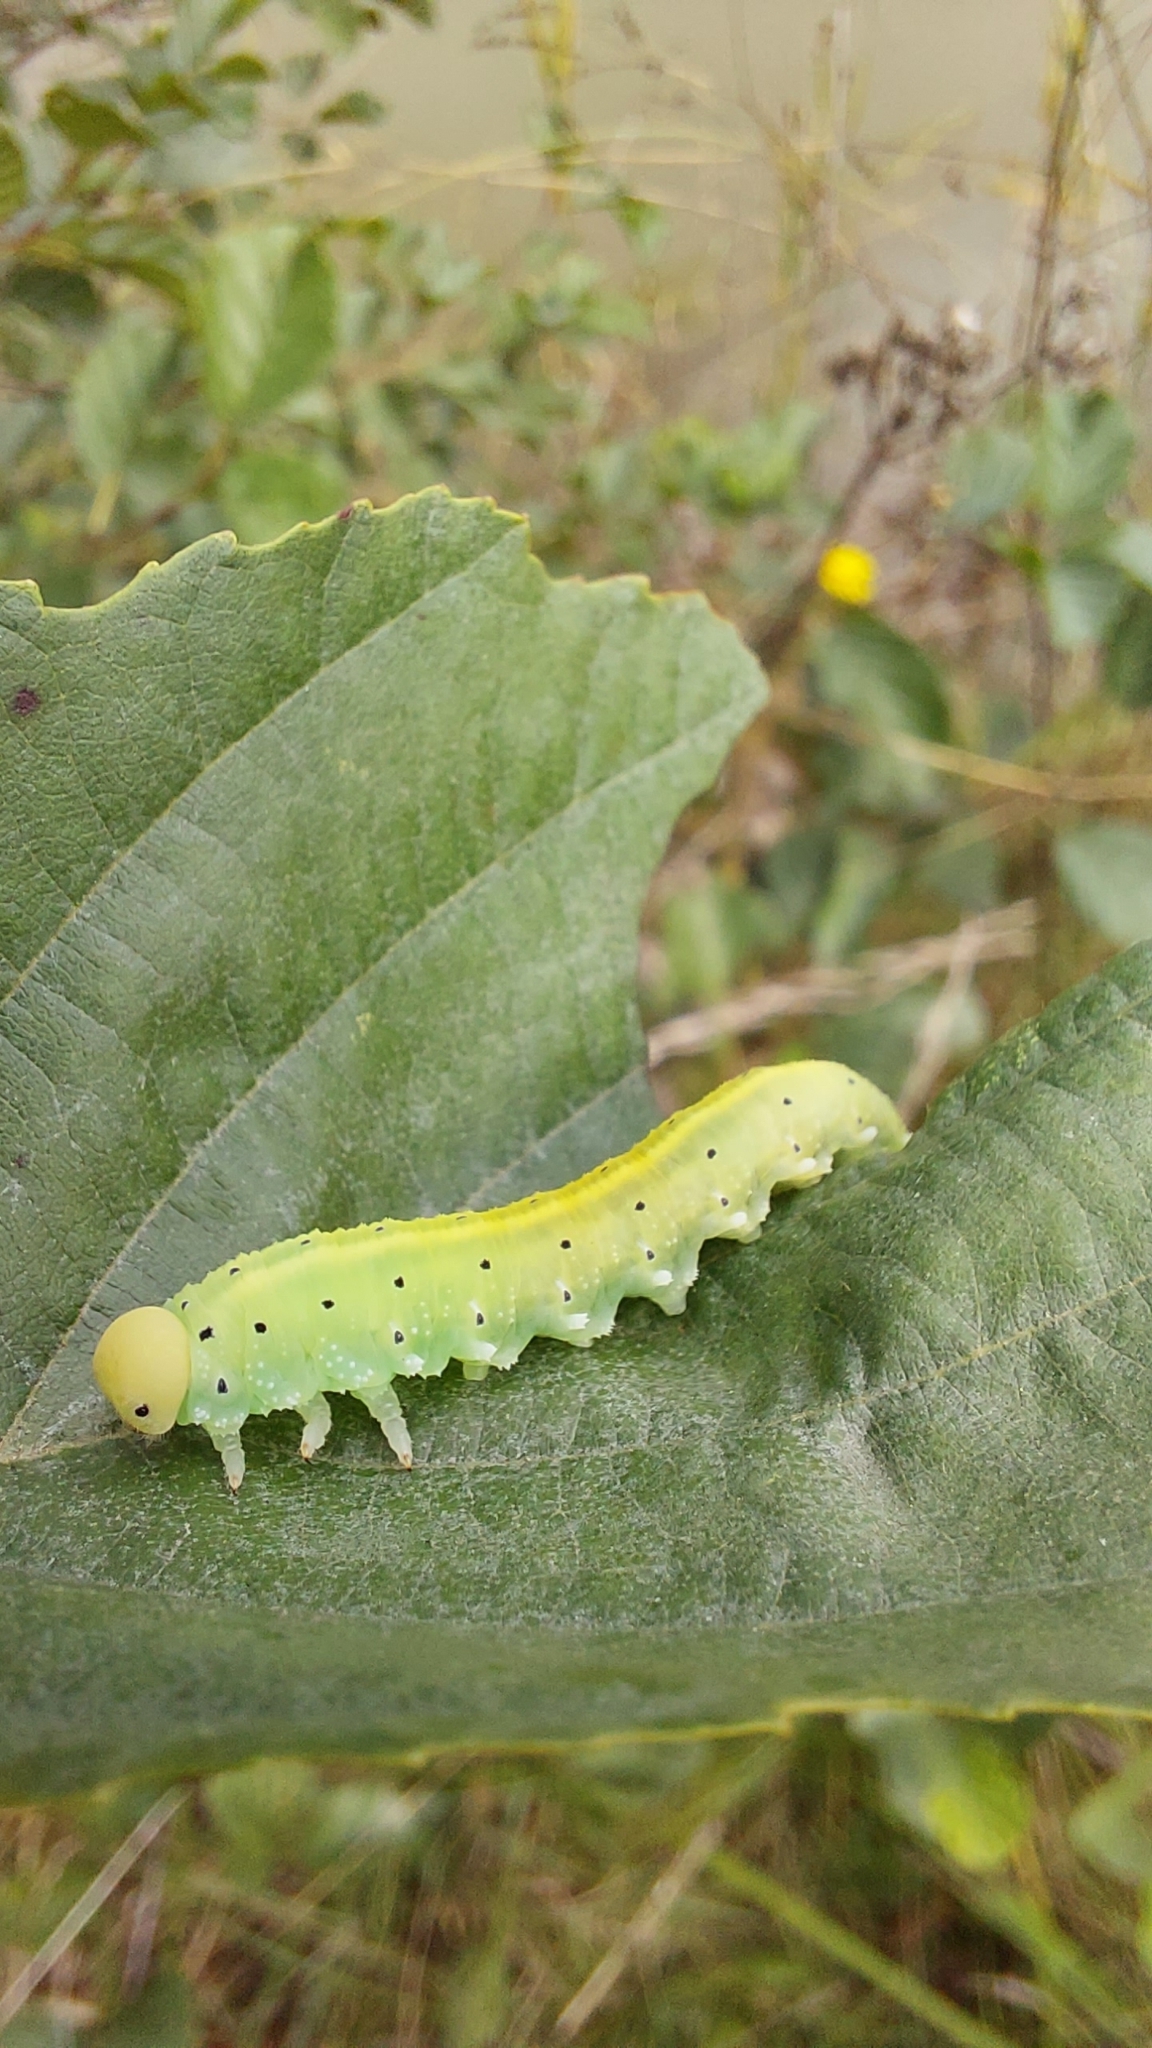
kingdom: Animalia
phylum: Arthropoda
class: Insecta
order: Hymenoptera
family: Cimbicidae
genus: Cimbex
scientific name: Cimbex connatus
